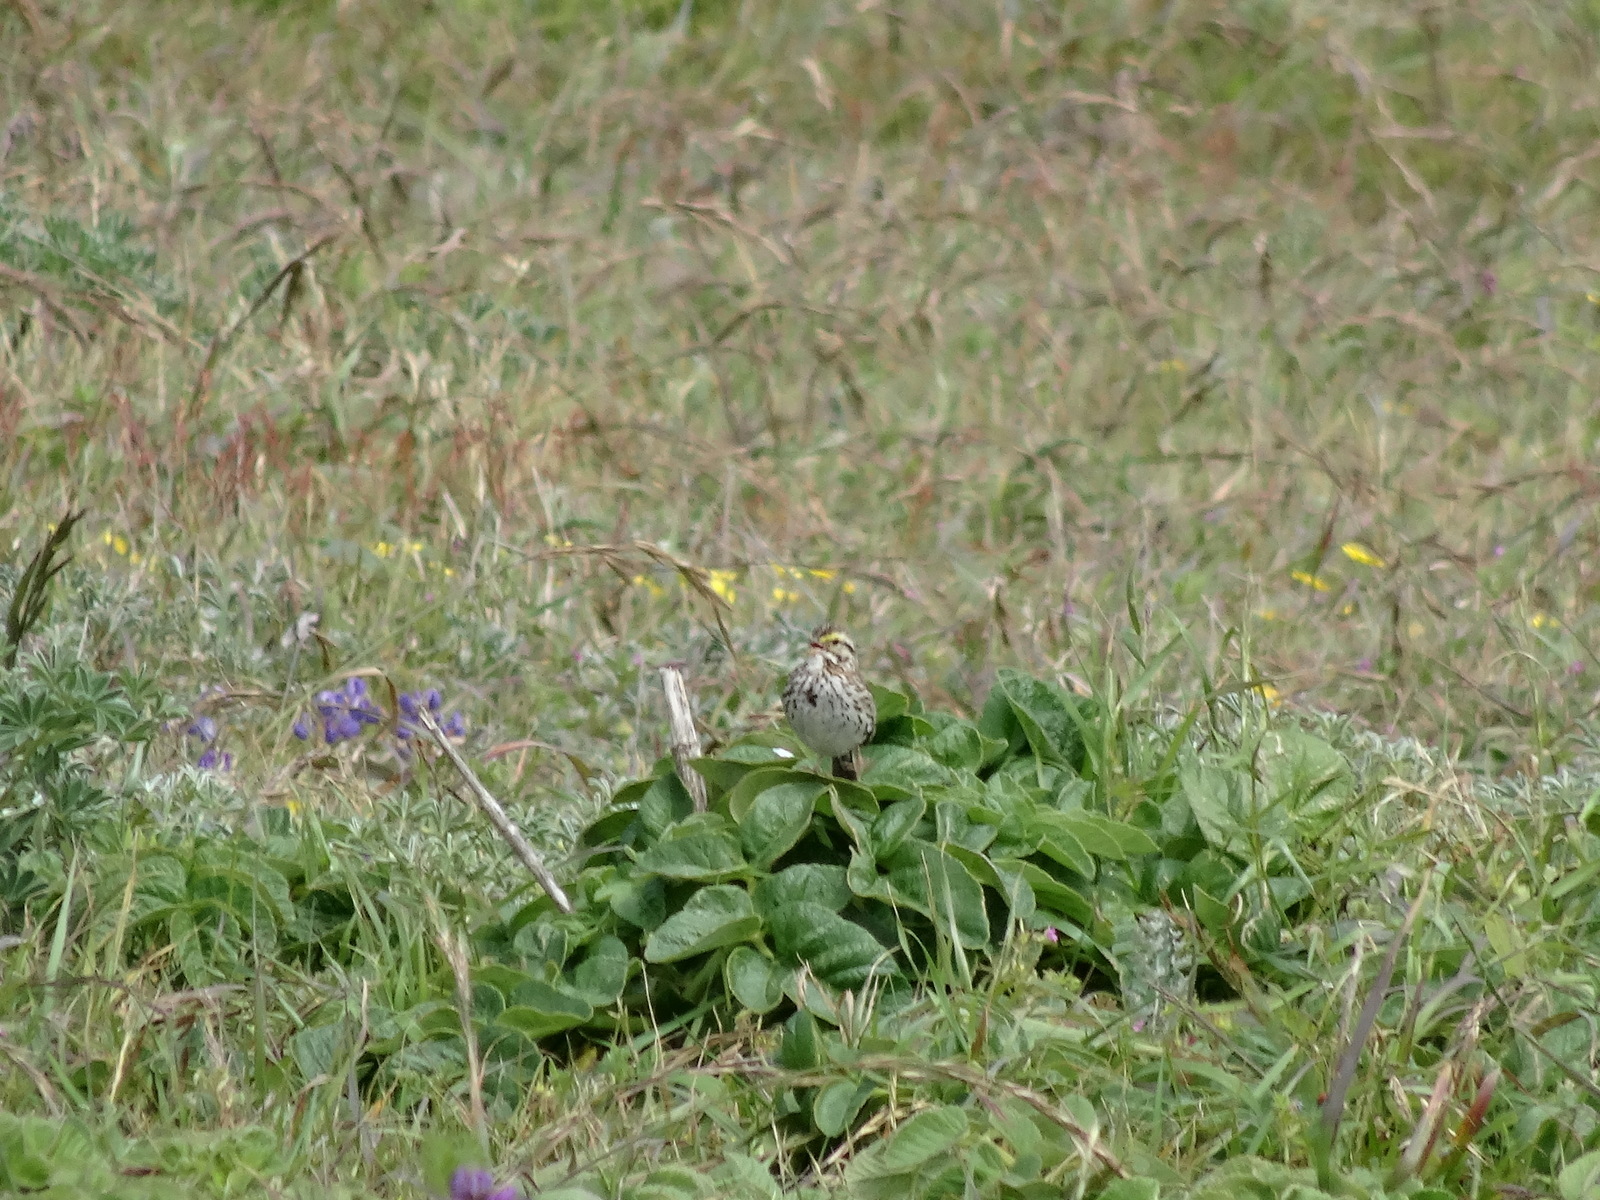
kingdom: Animalia
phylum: Chordata
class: Aves
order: Passeriformes
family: Passerellidae
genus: Passerculus
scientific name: Passerculus sandwichensis
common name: Savannah sparrow
